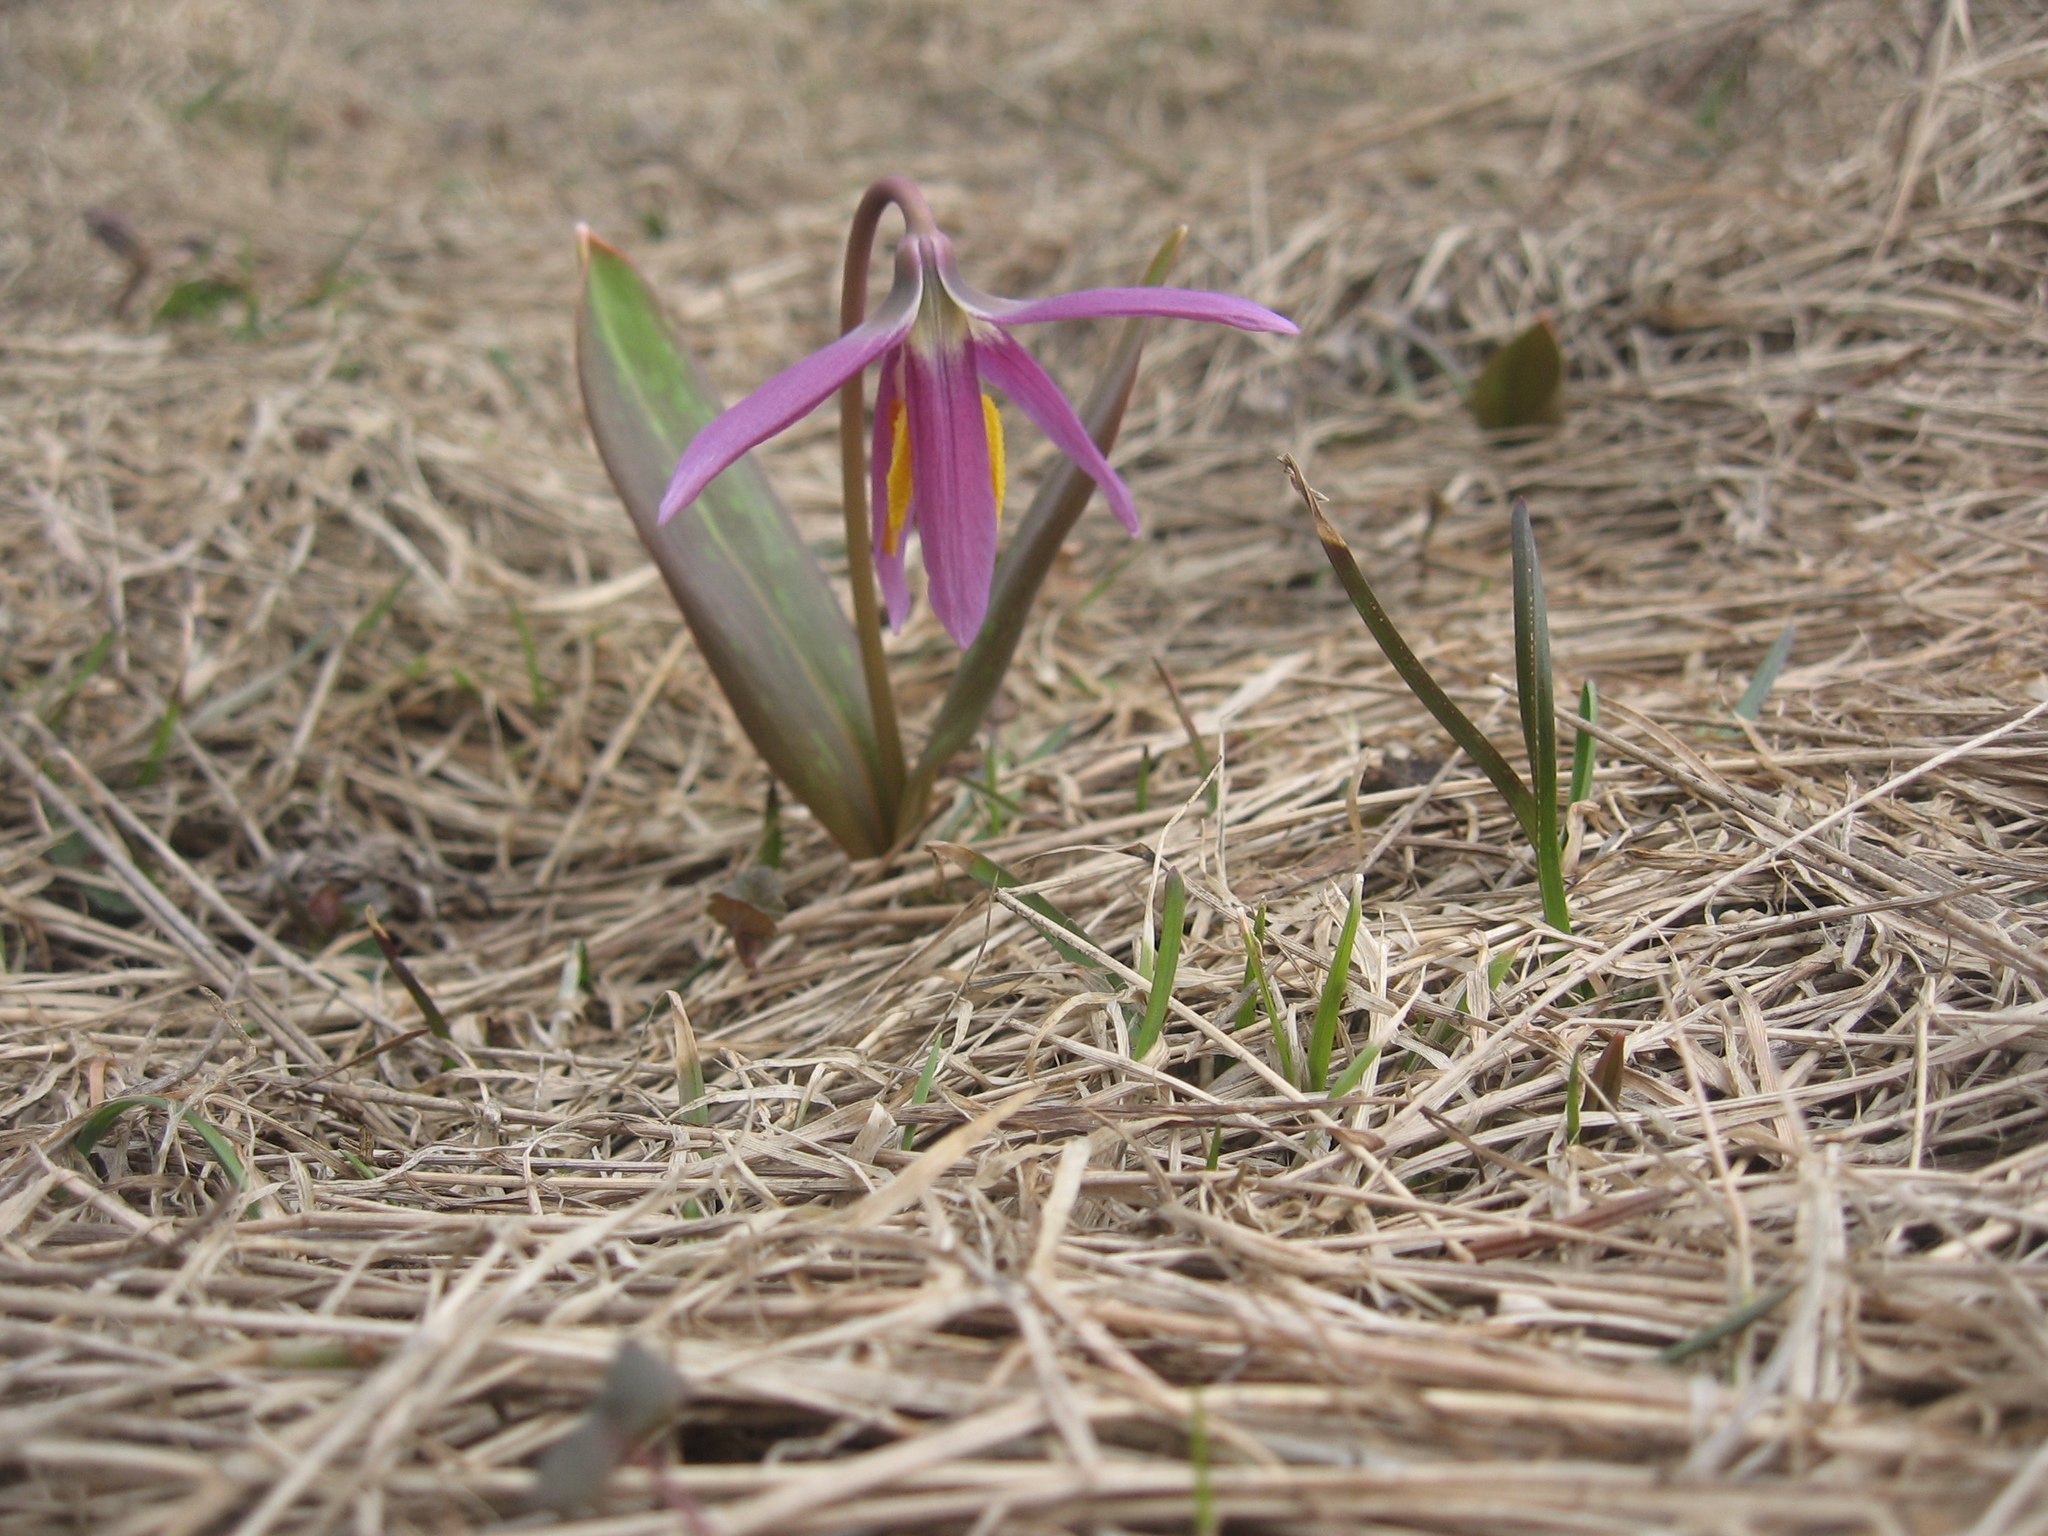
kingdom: Plantae
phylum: Tracheophyta
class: Liliopsida
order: Liliales
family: Liliaceae
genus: Erythronium
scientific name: Erythronium sibiricum
